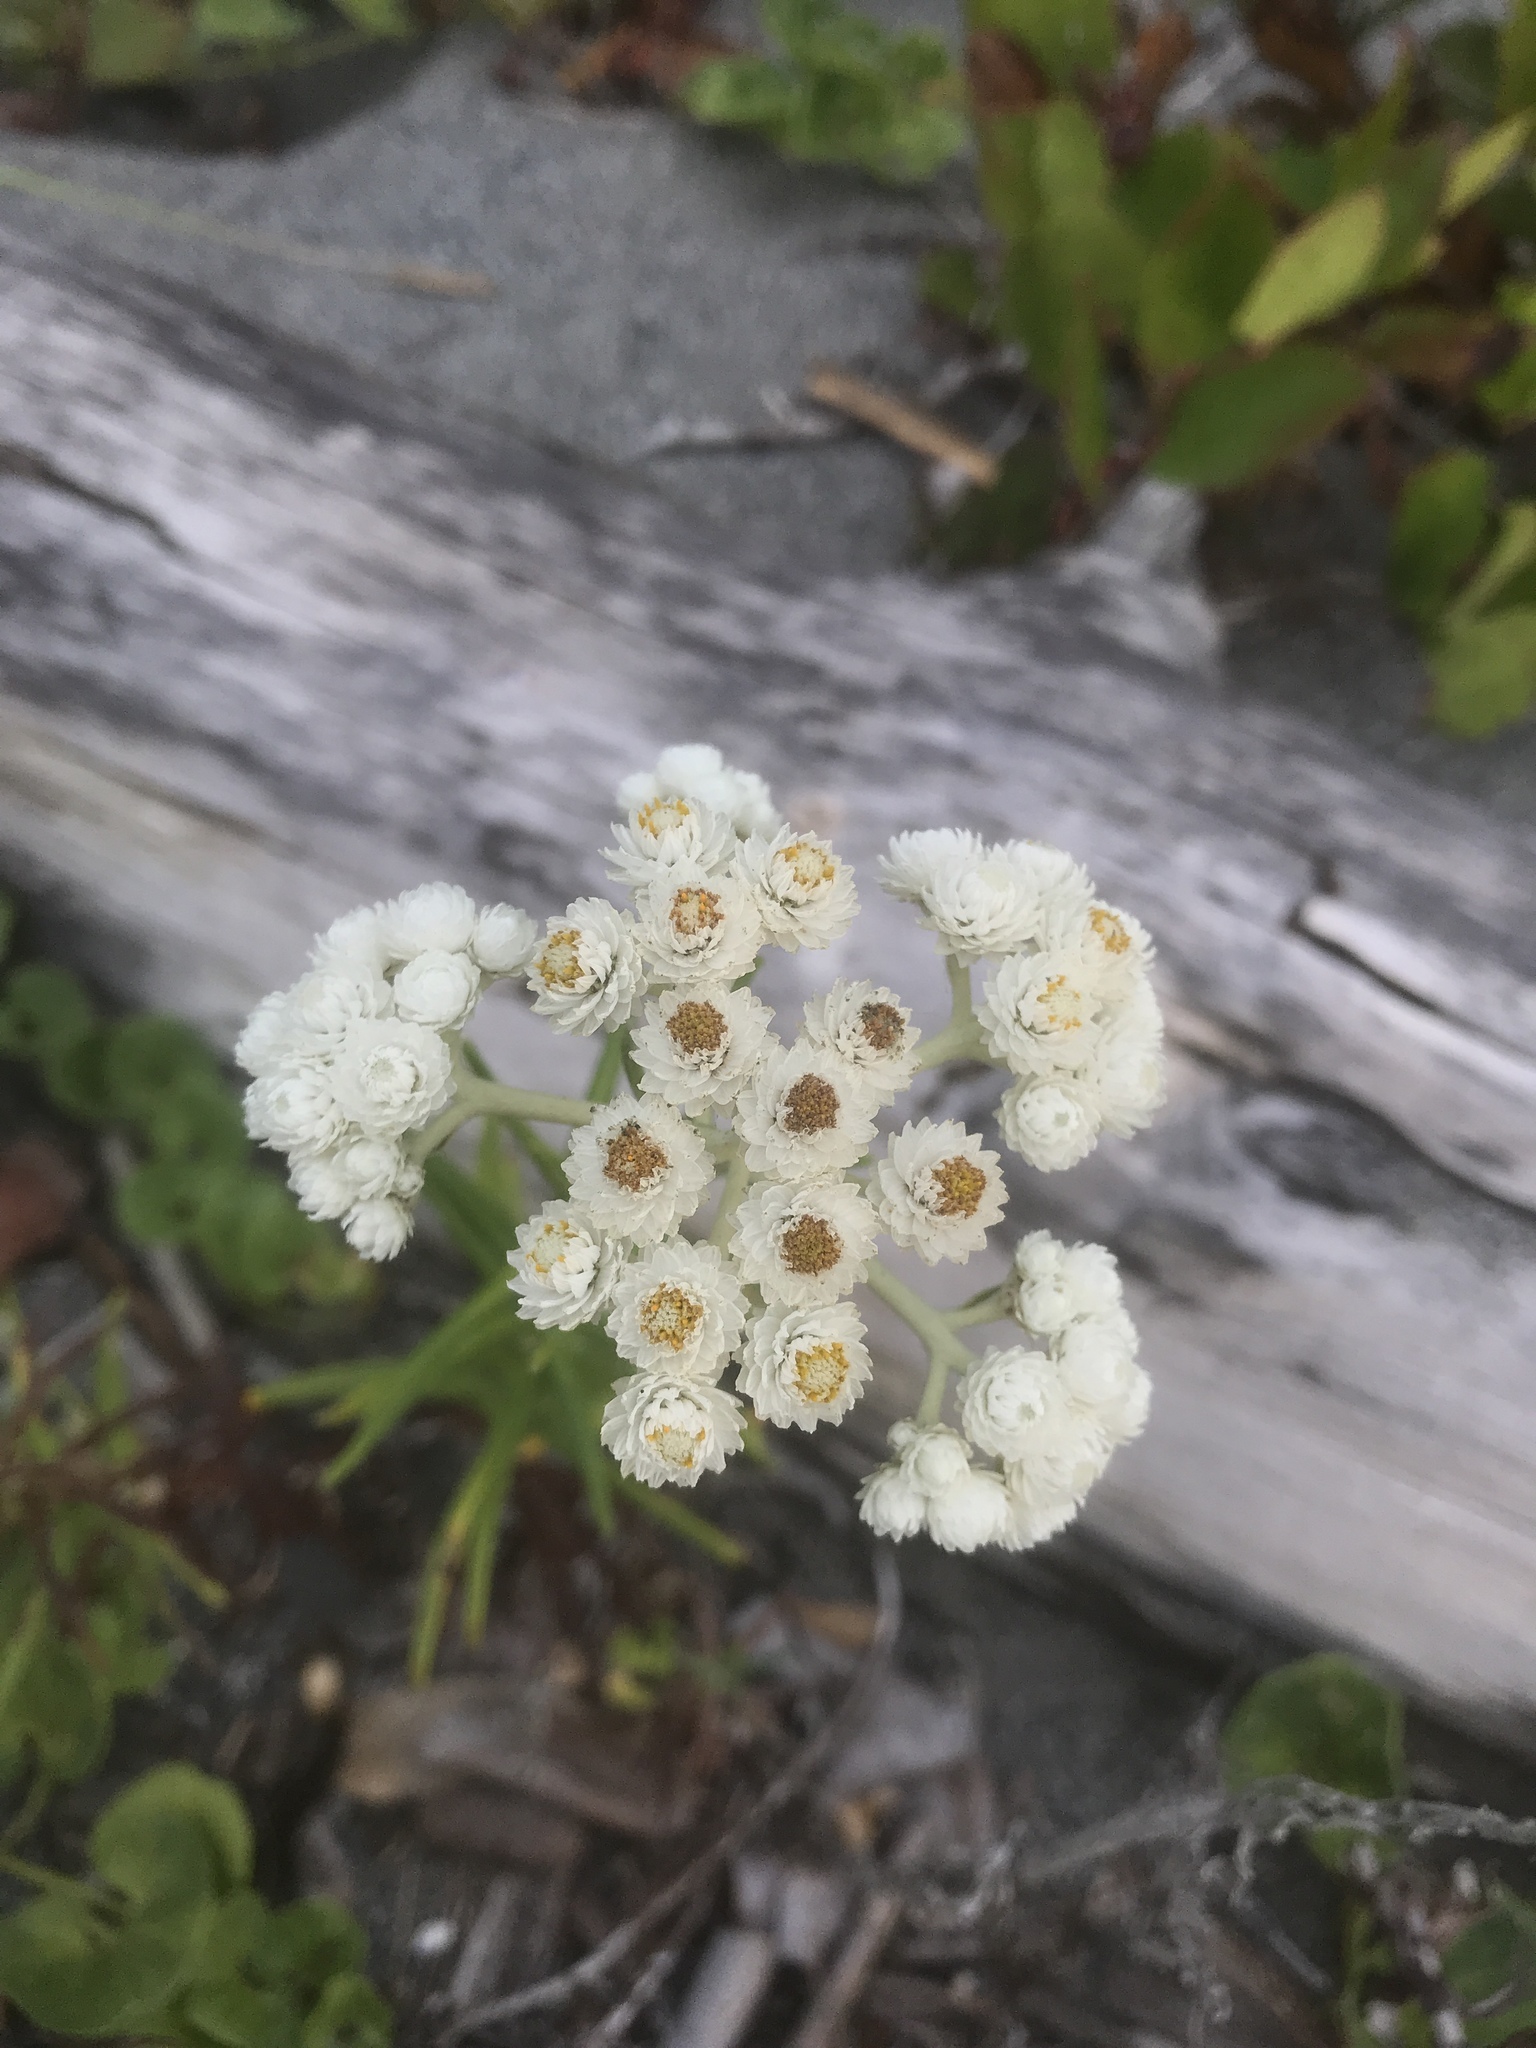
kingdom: Plantae
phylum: Tracheophyta
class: Magnoliopsida
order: Asterales
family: Asteraceae
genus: Anaphalis
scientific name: Anaphalis margaritacea
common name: Pearly everlasting
